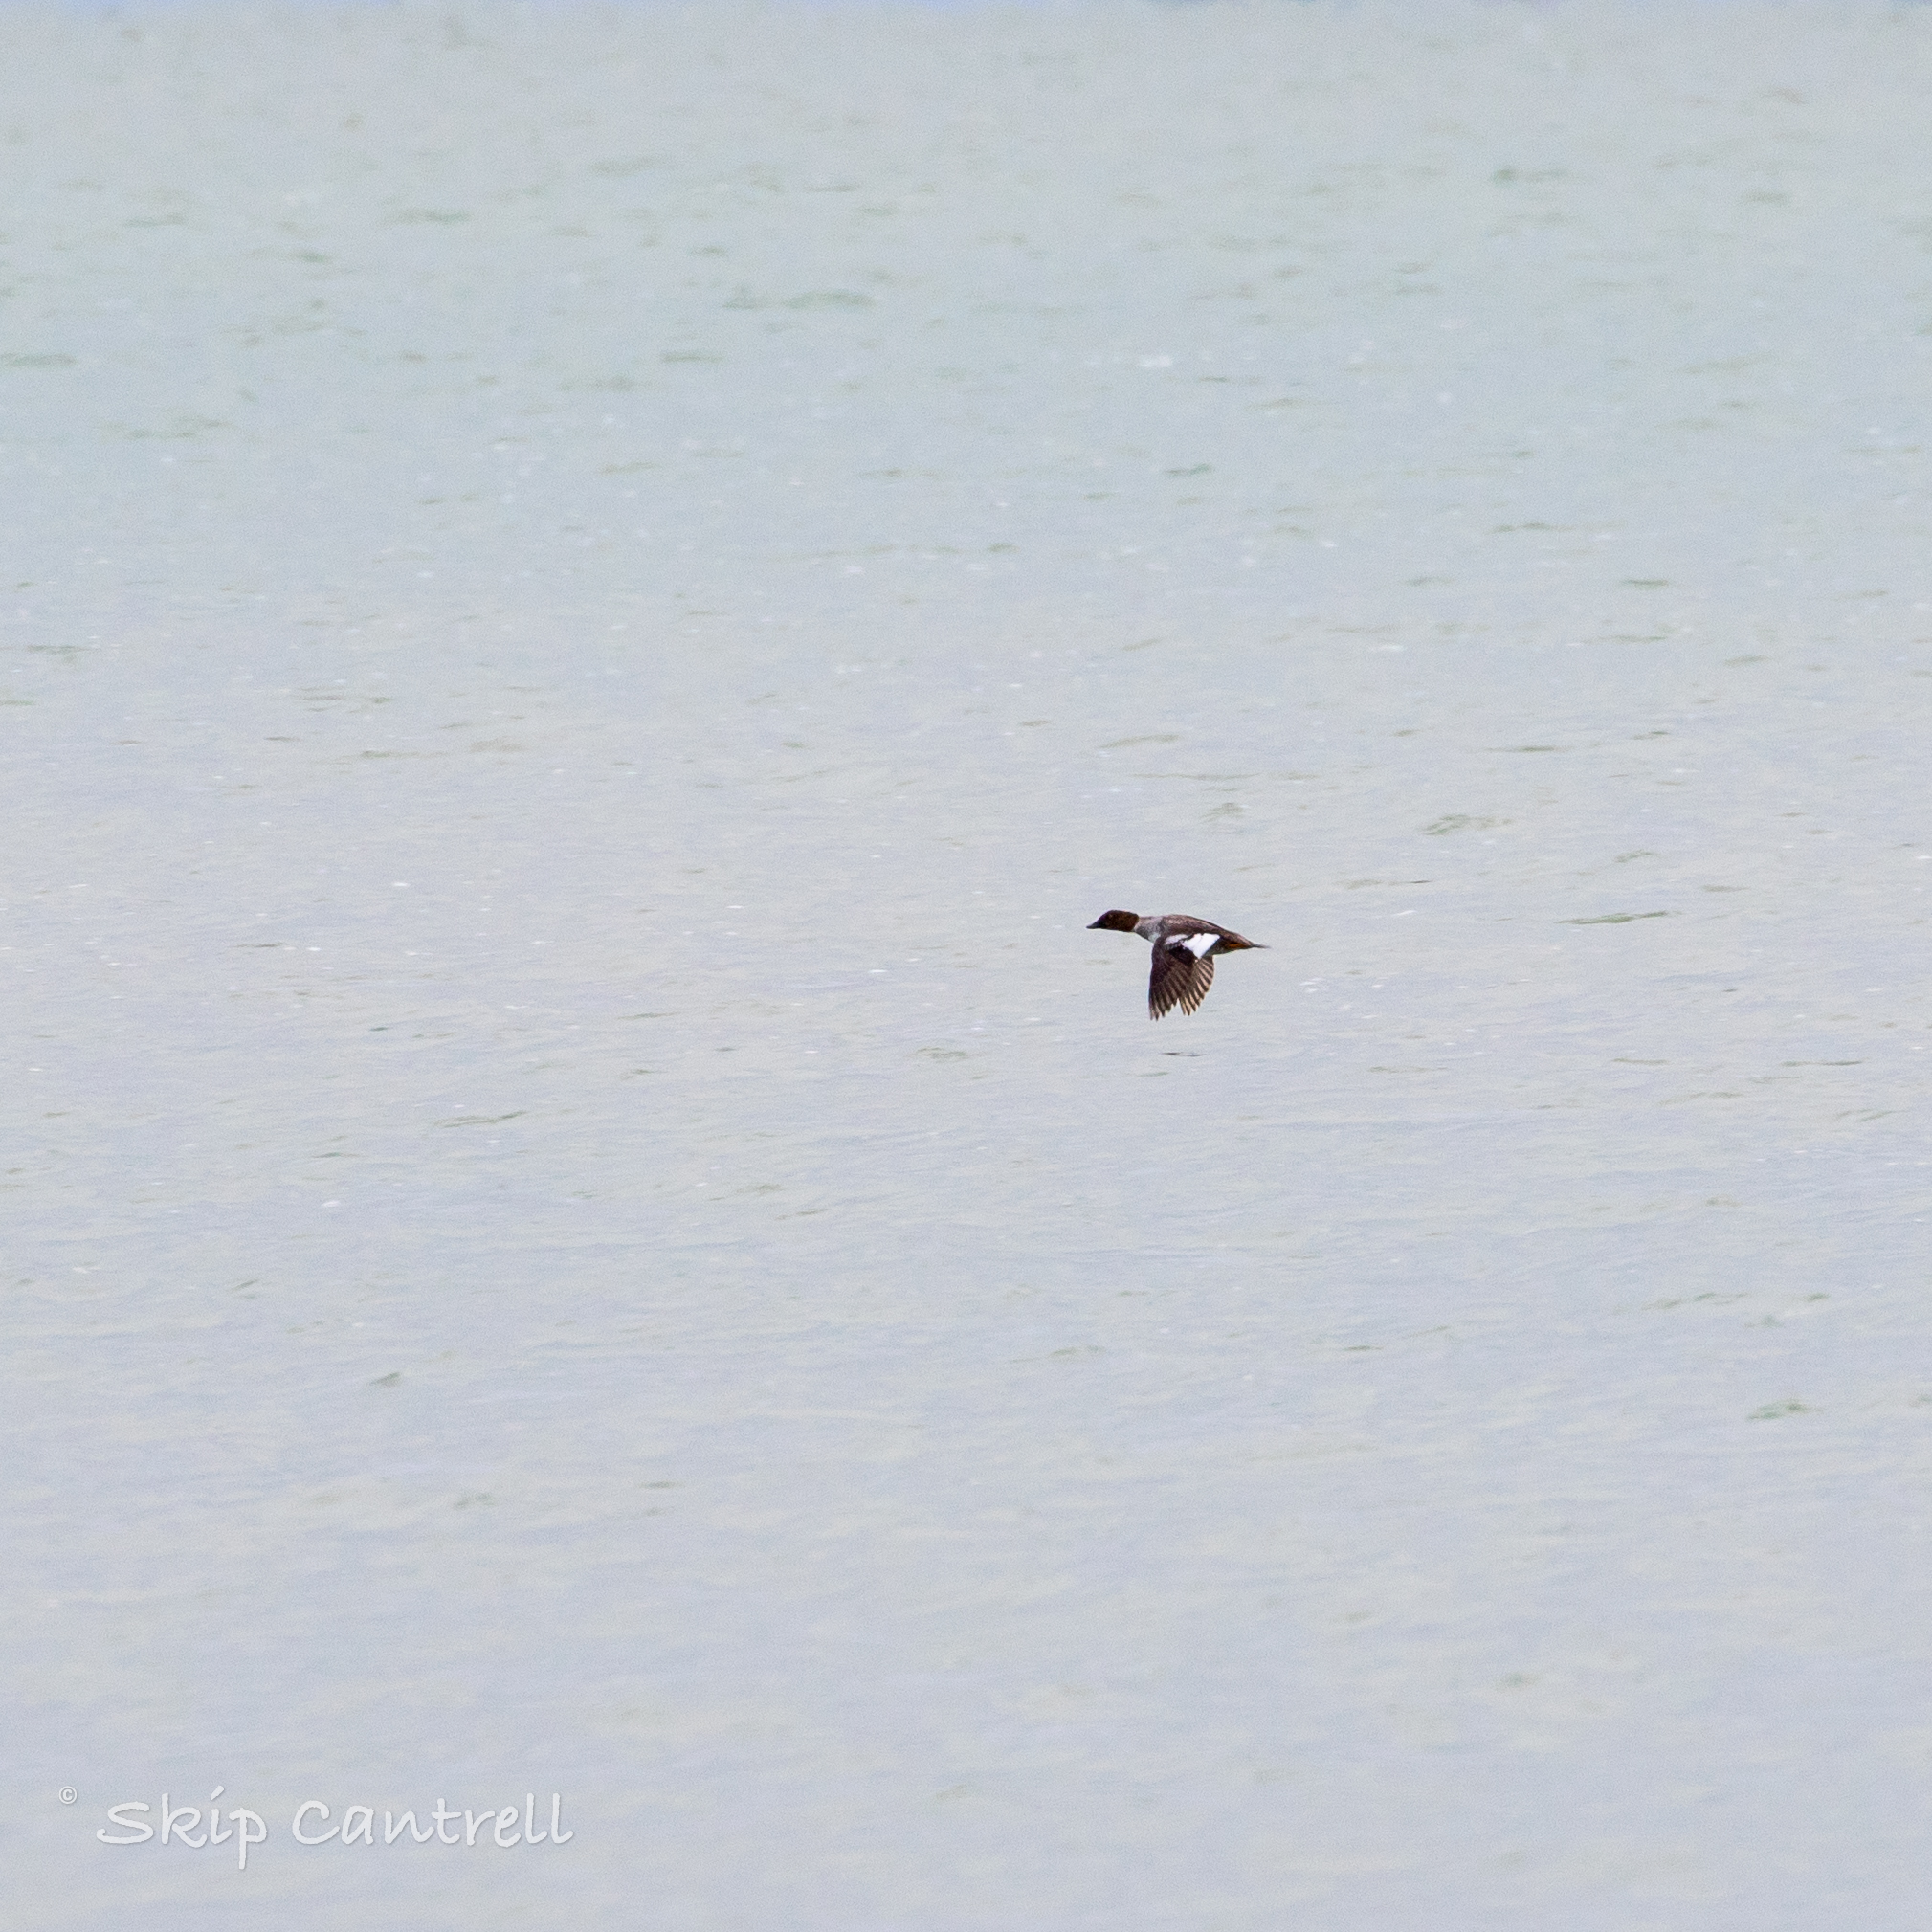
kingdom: Animalia
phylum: Chordata
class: Aves
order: Anseriformes
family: Anatidae
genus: Bucephala
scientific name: Bucephala clangula
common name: Common goldeneye
